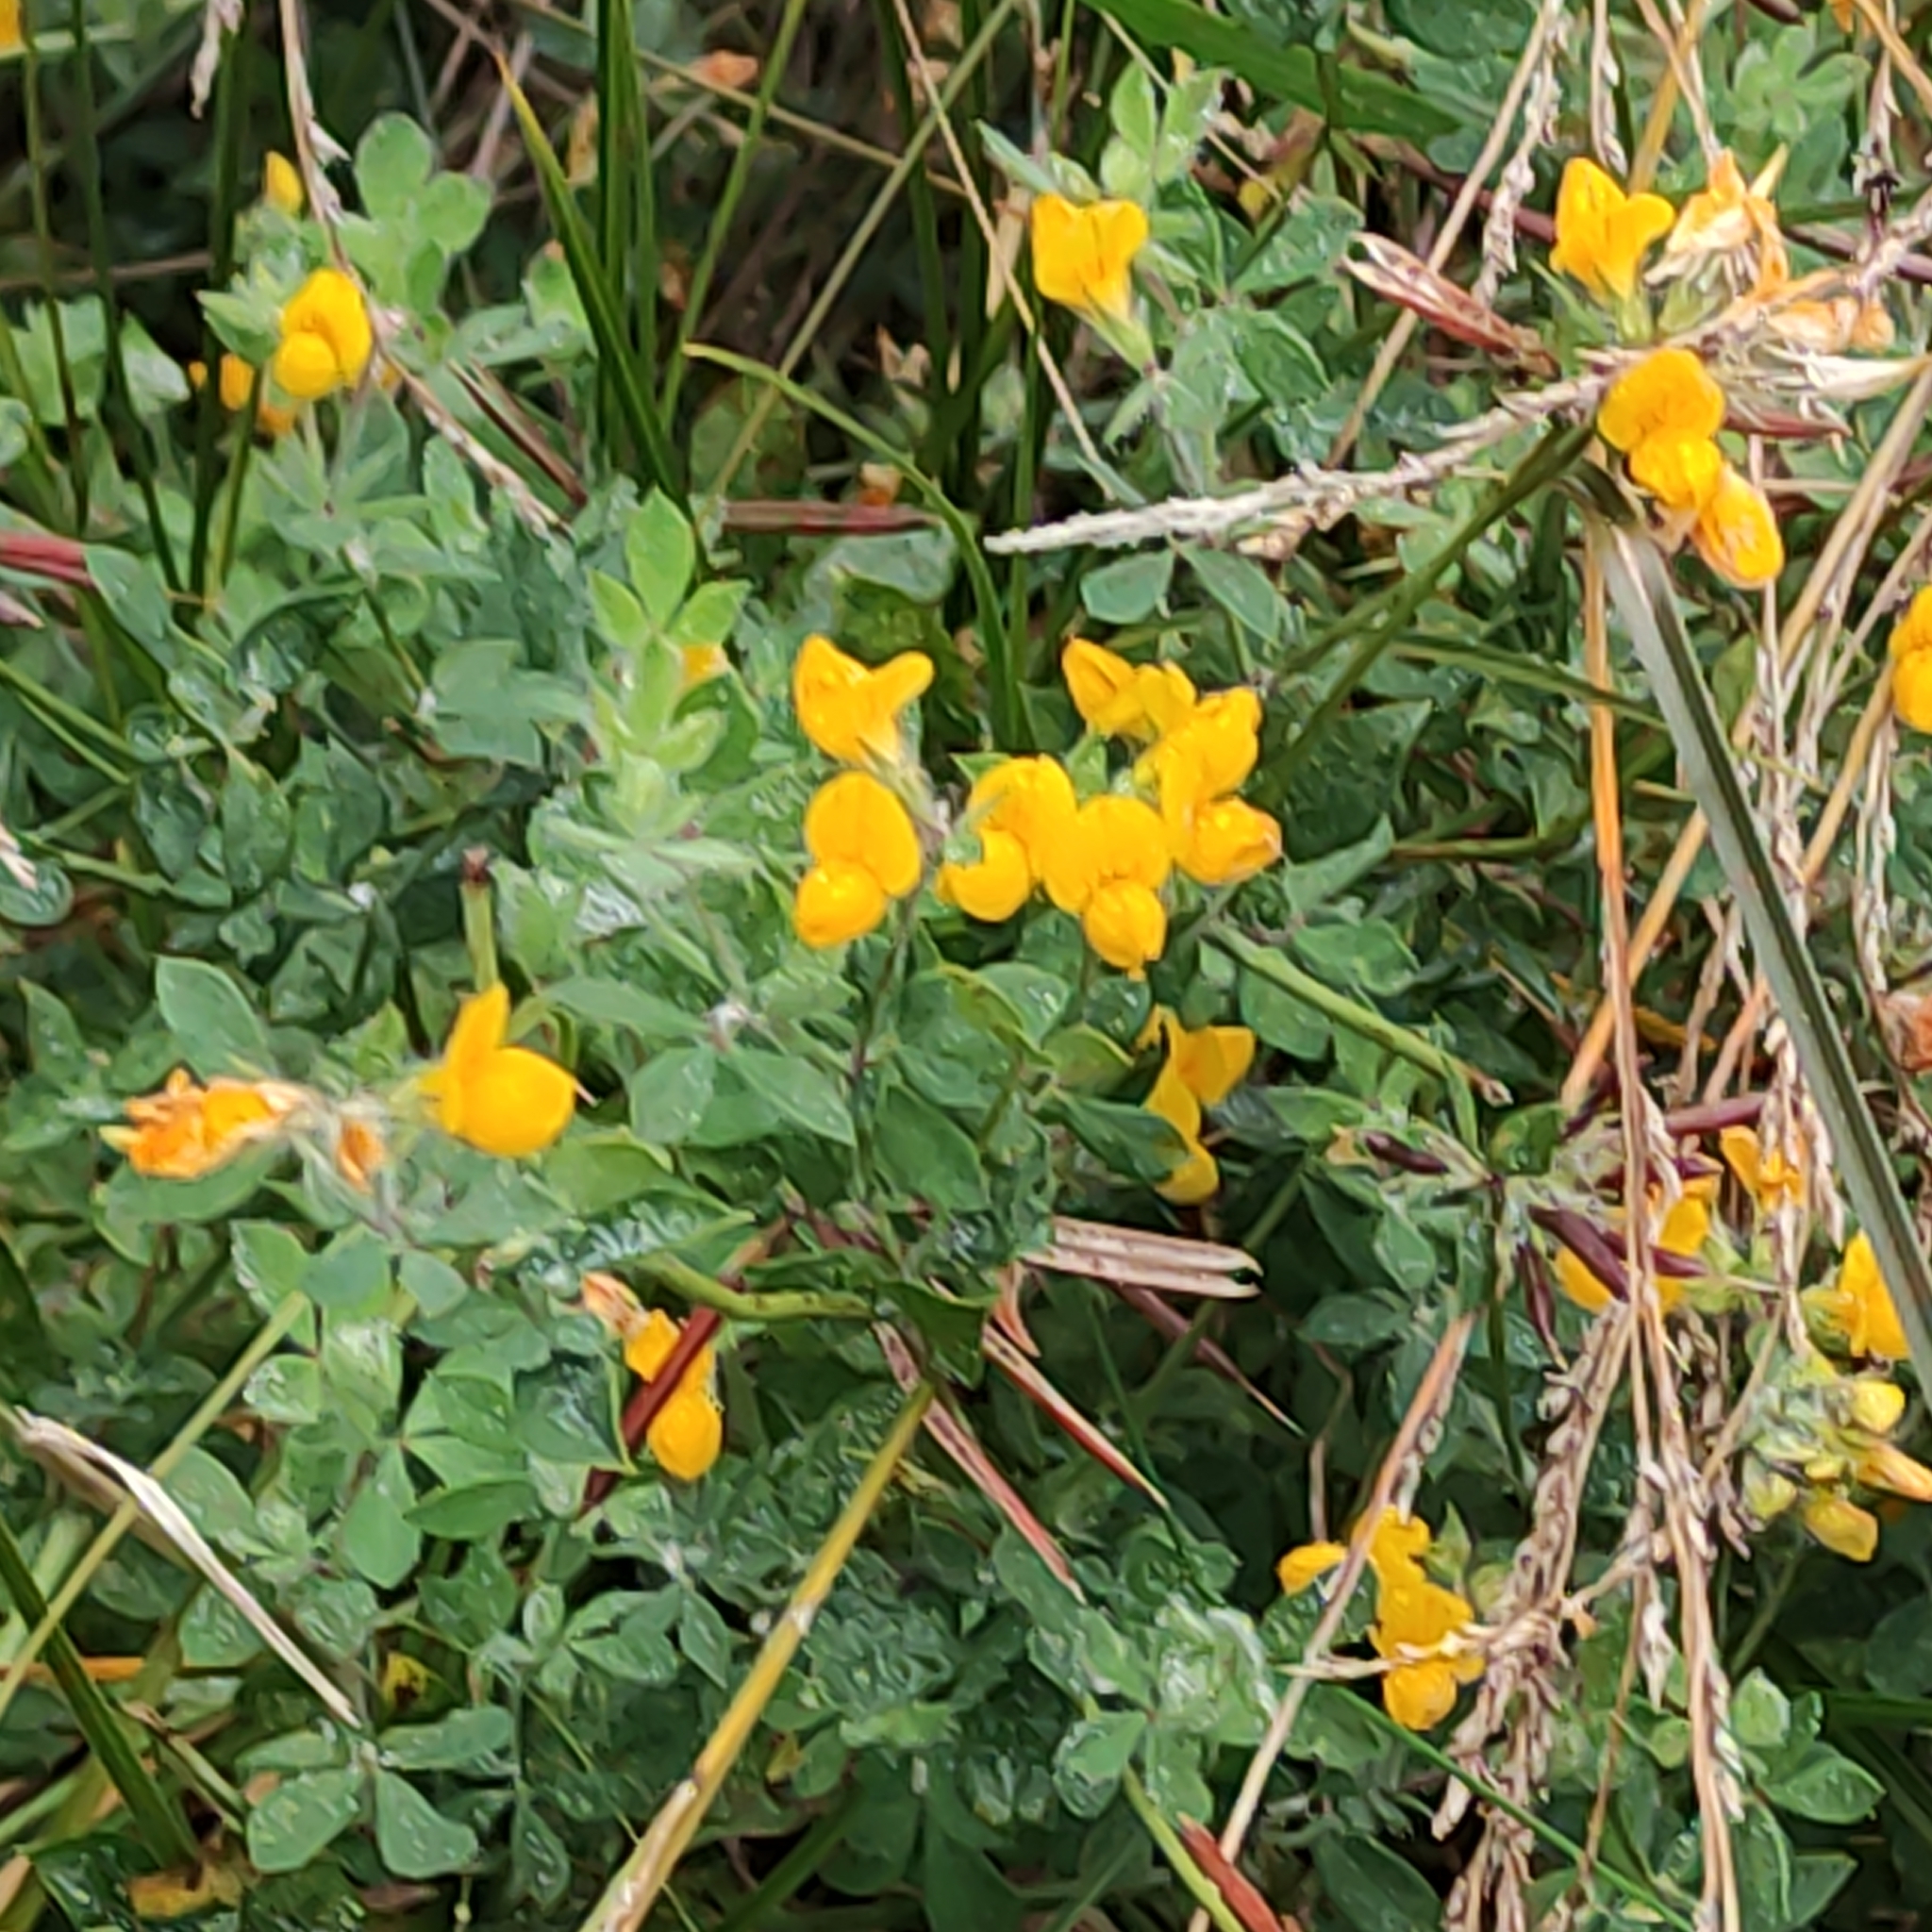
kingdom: Plantae
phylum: Tracheophyta
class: Magnoliopsida
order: Fabales
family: Fabaceae
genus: Lotus
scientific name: Lotus pedunculatus
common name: Greater birdsfoot-trefoil
